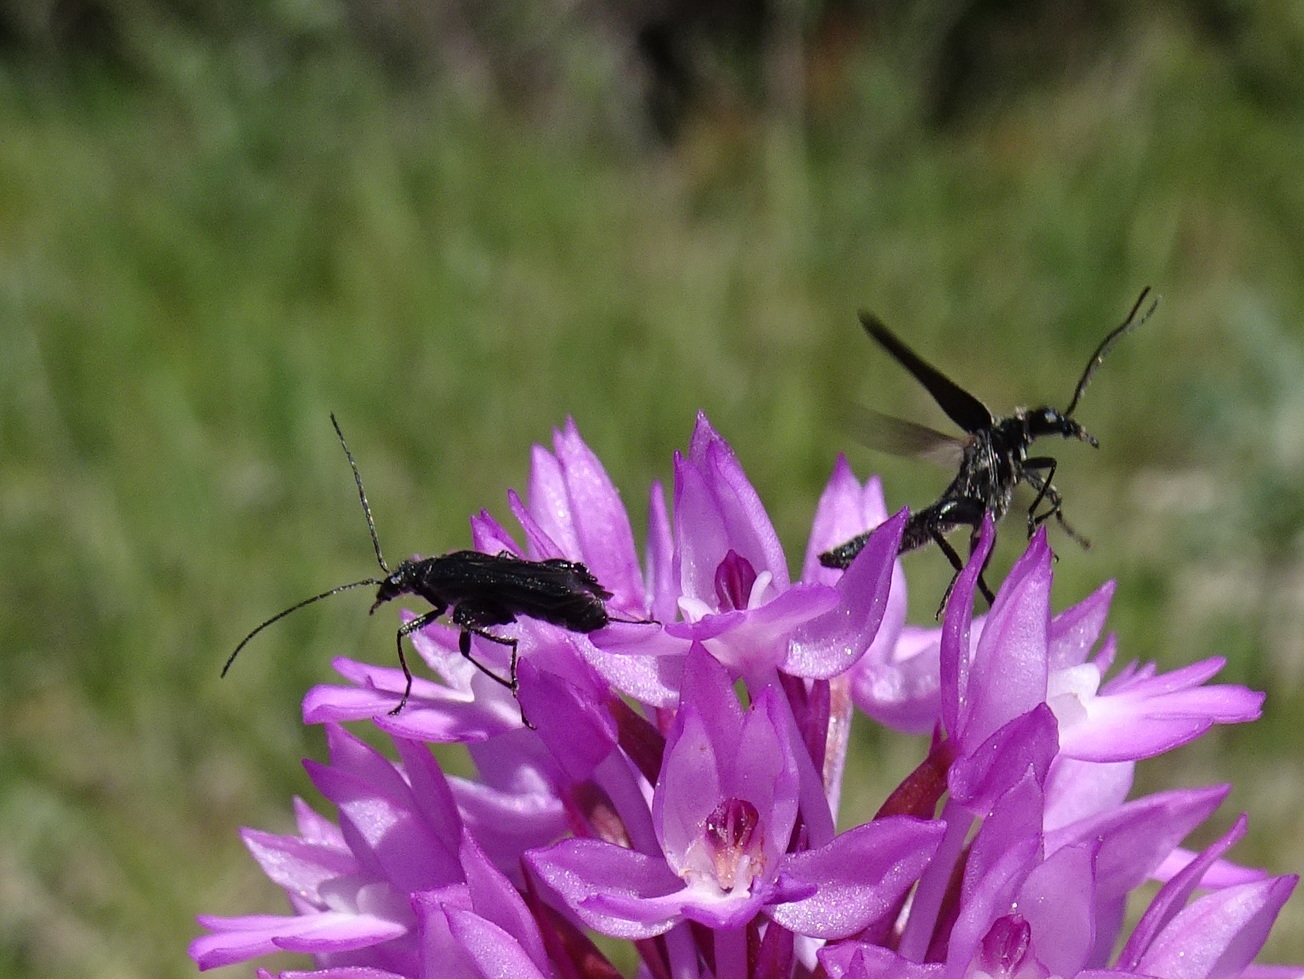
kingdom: Animalia
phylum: Arthropoda
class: Insecta
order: Coleoptera
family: Oedemeridae
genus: Oedemera
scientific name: Oedemera atrata
